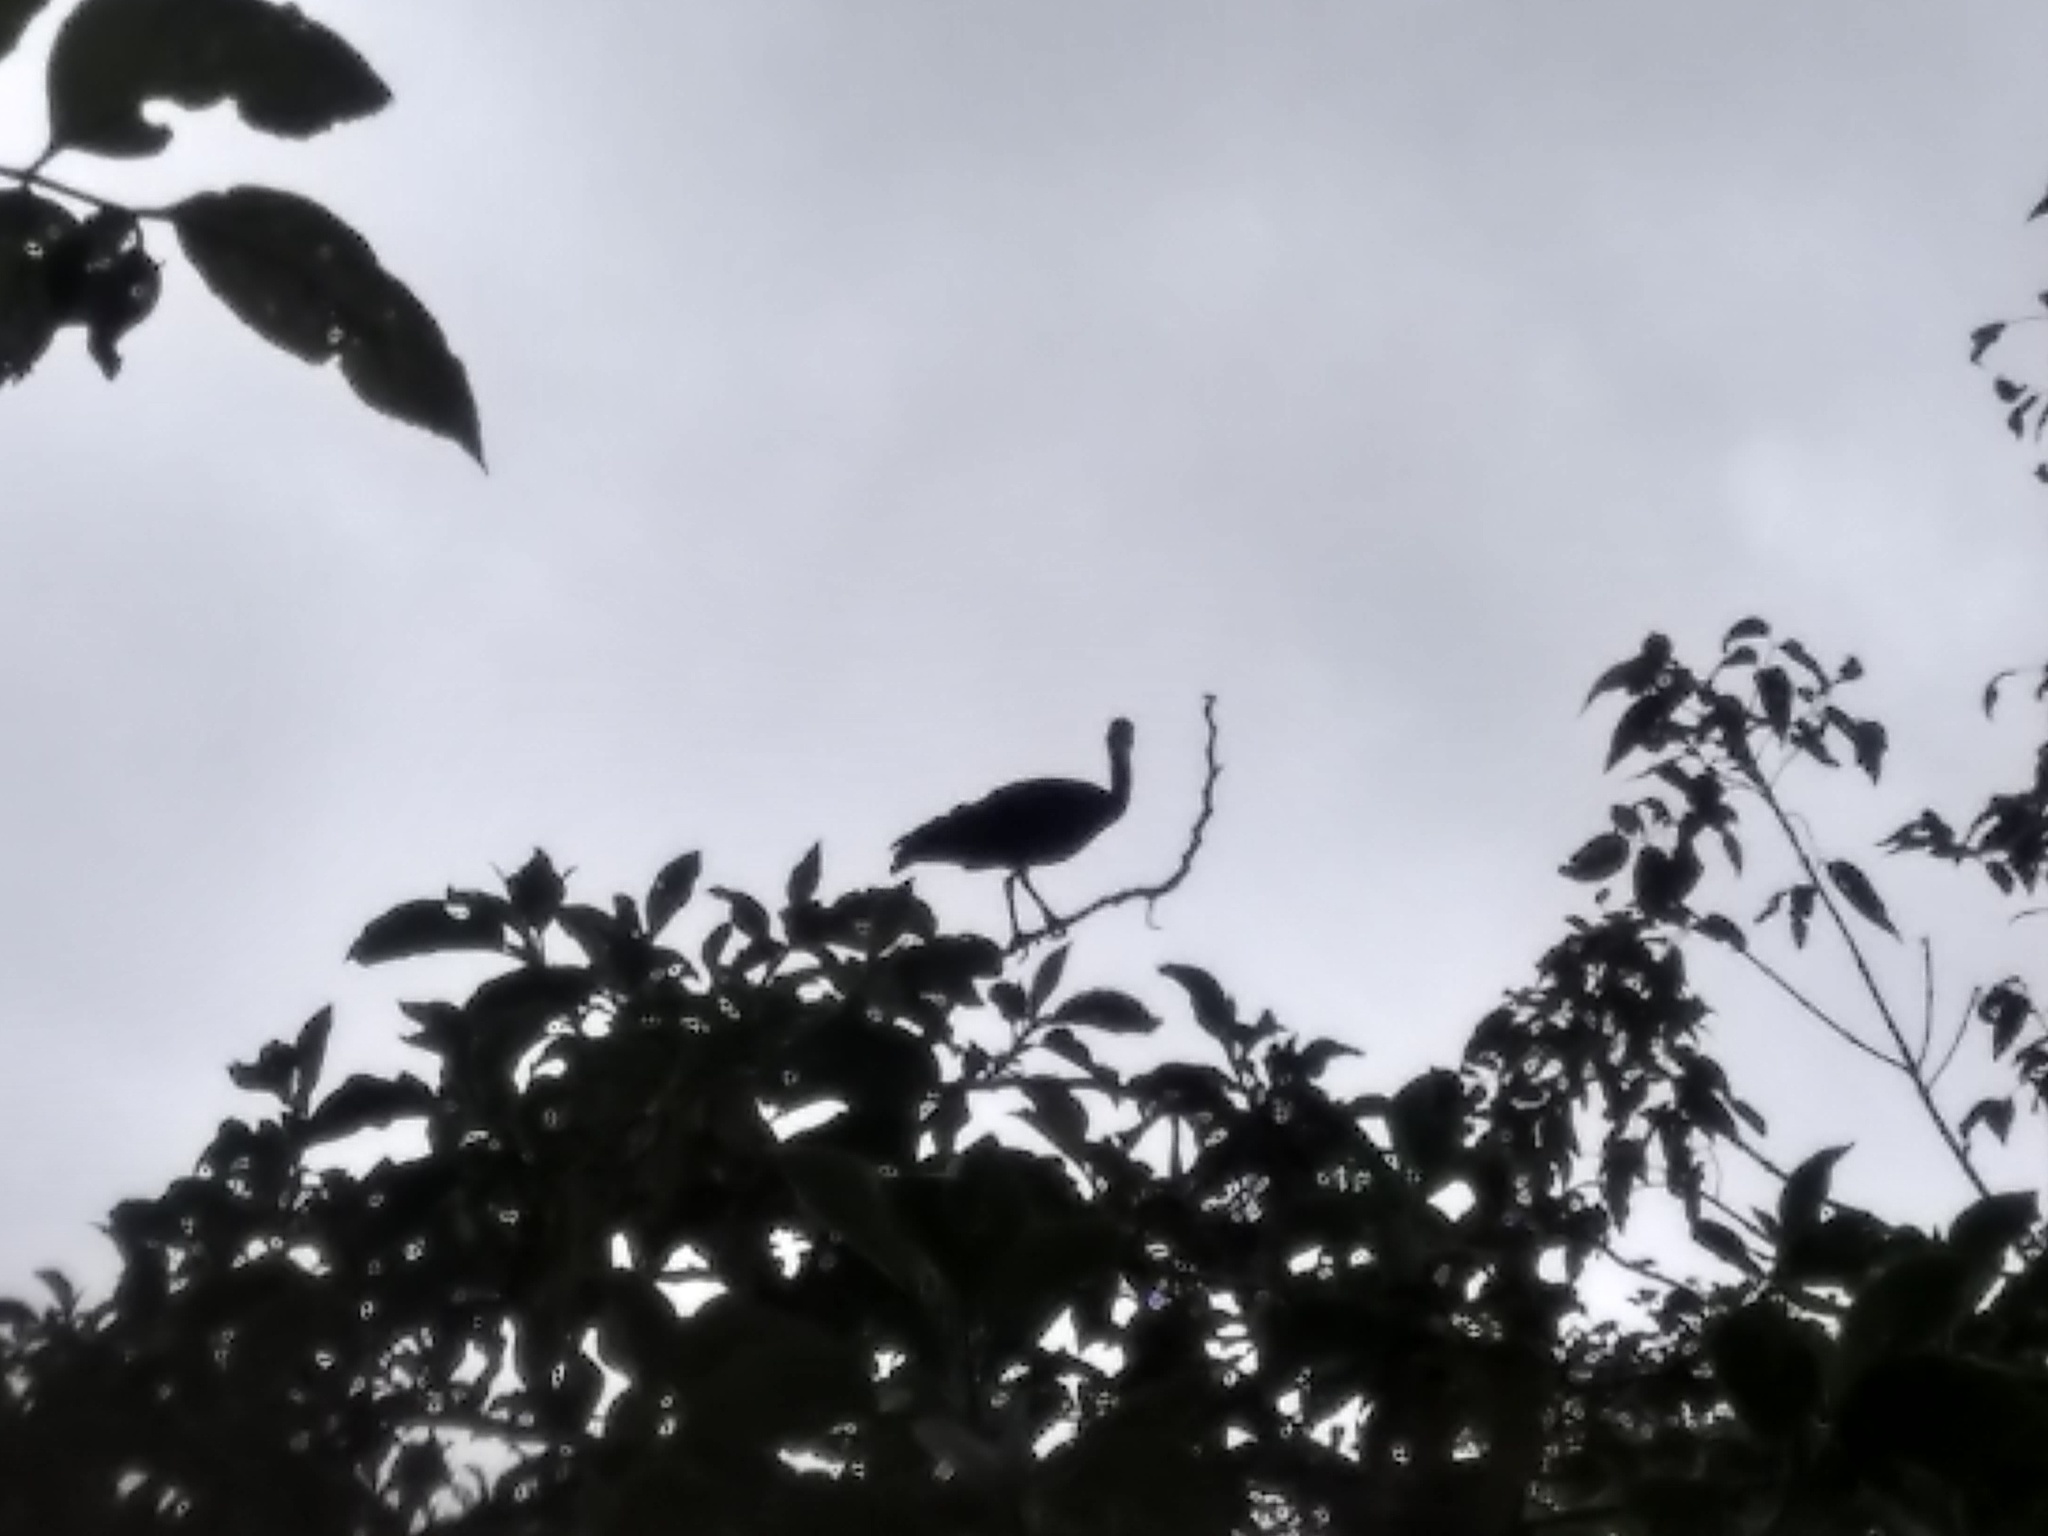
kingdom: Animalia
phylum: Chordata
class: Aves
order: Pelecaniformes
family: Threskiornithidae
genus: Phimosus
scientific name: Phimosus infuscatus
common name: Bare-faced ibis
